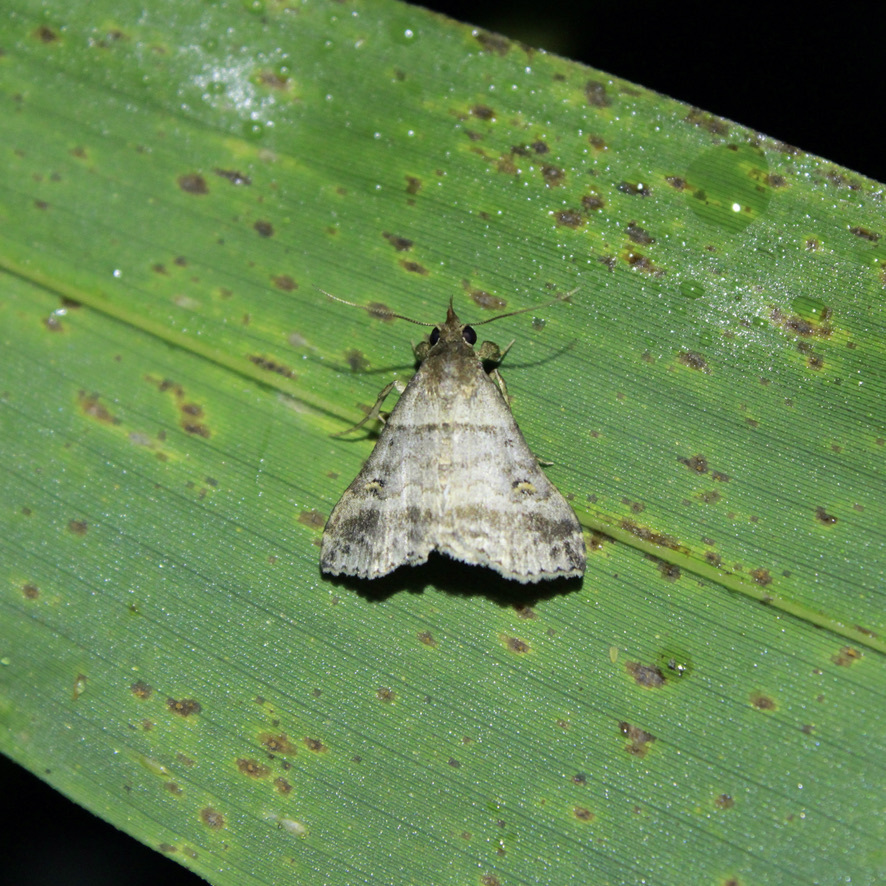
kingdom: Animalia
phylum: Arthropoda
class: Insecta
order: Lepidoptera
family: Erebidae
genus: Heterogramma
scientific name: Heterogramma circumflexalis
